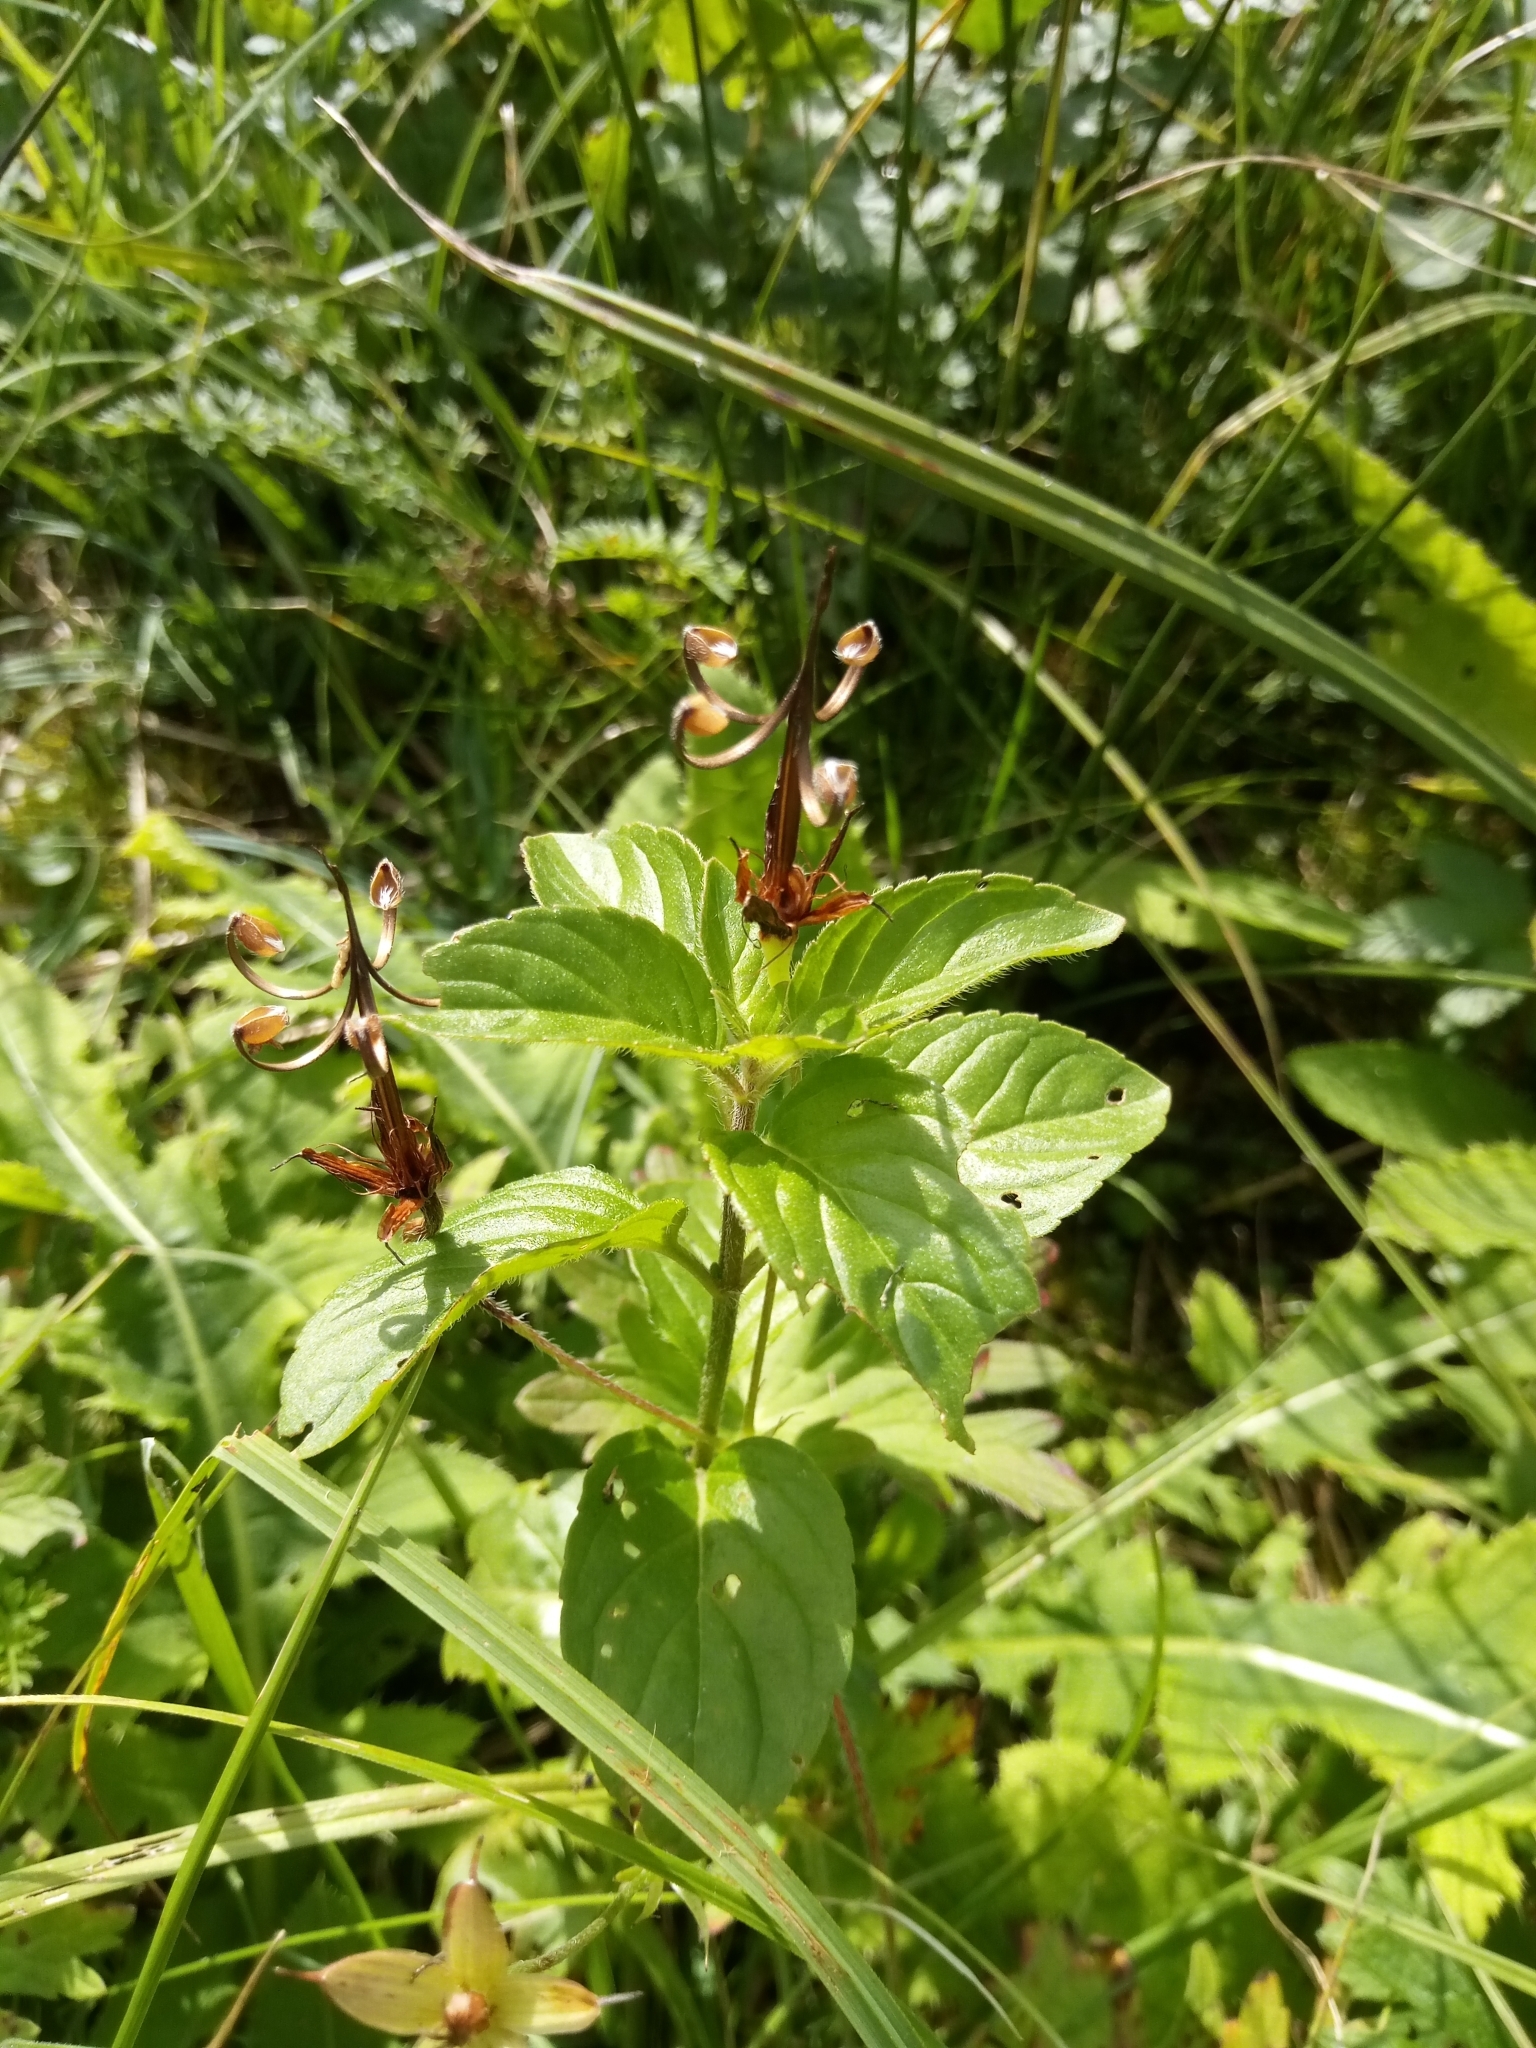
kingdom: Plantae
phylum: Tracheophyta
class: Magnoliopsida
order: Lamiales
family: Lamiaceae
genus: Mentha
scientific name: Mentha aquatica
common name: Water mint
